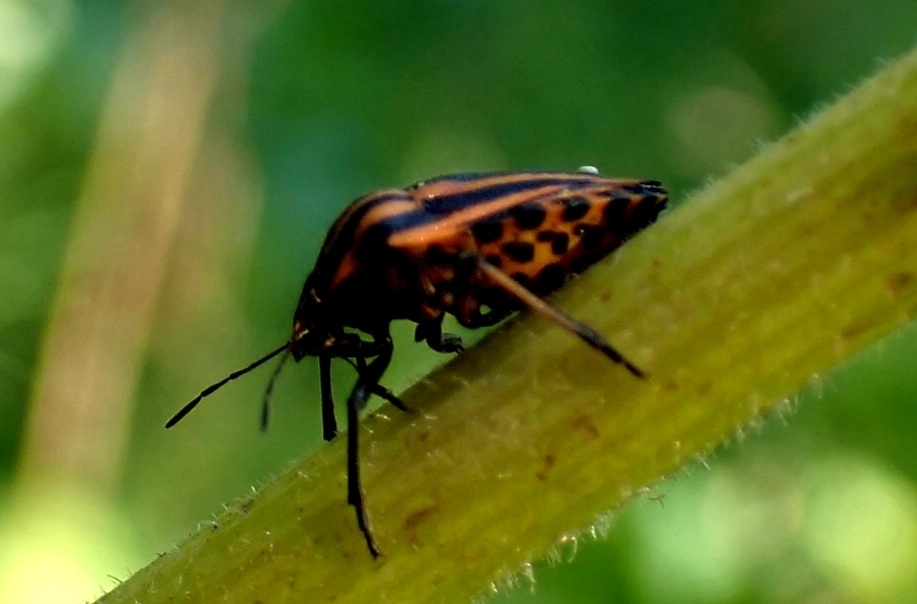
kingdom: Animalia
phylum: Arthropoda
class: Insecta
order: Hemiptera
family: Pentatomidae
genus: Graphosoma
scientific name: Graphosoma italicum
